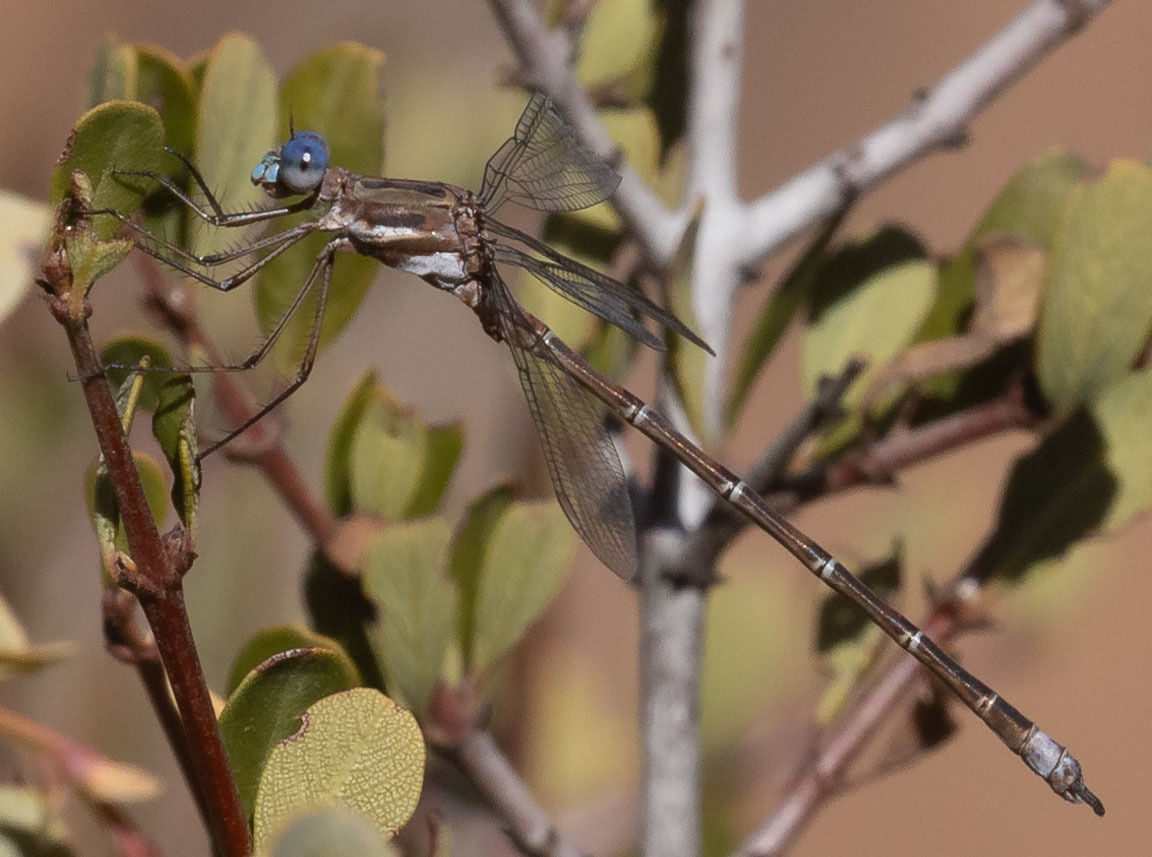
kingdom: Animalia
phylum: Arthropoda
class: Insecta
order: Odonata
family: Lestidae
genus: Archilestes
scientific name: Archilestes californicus
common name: California spreadwing
